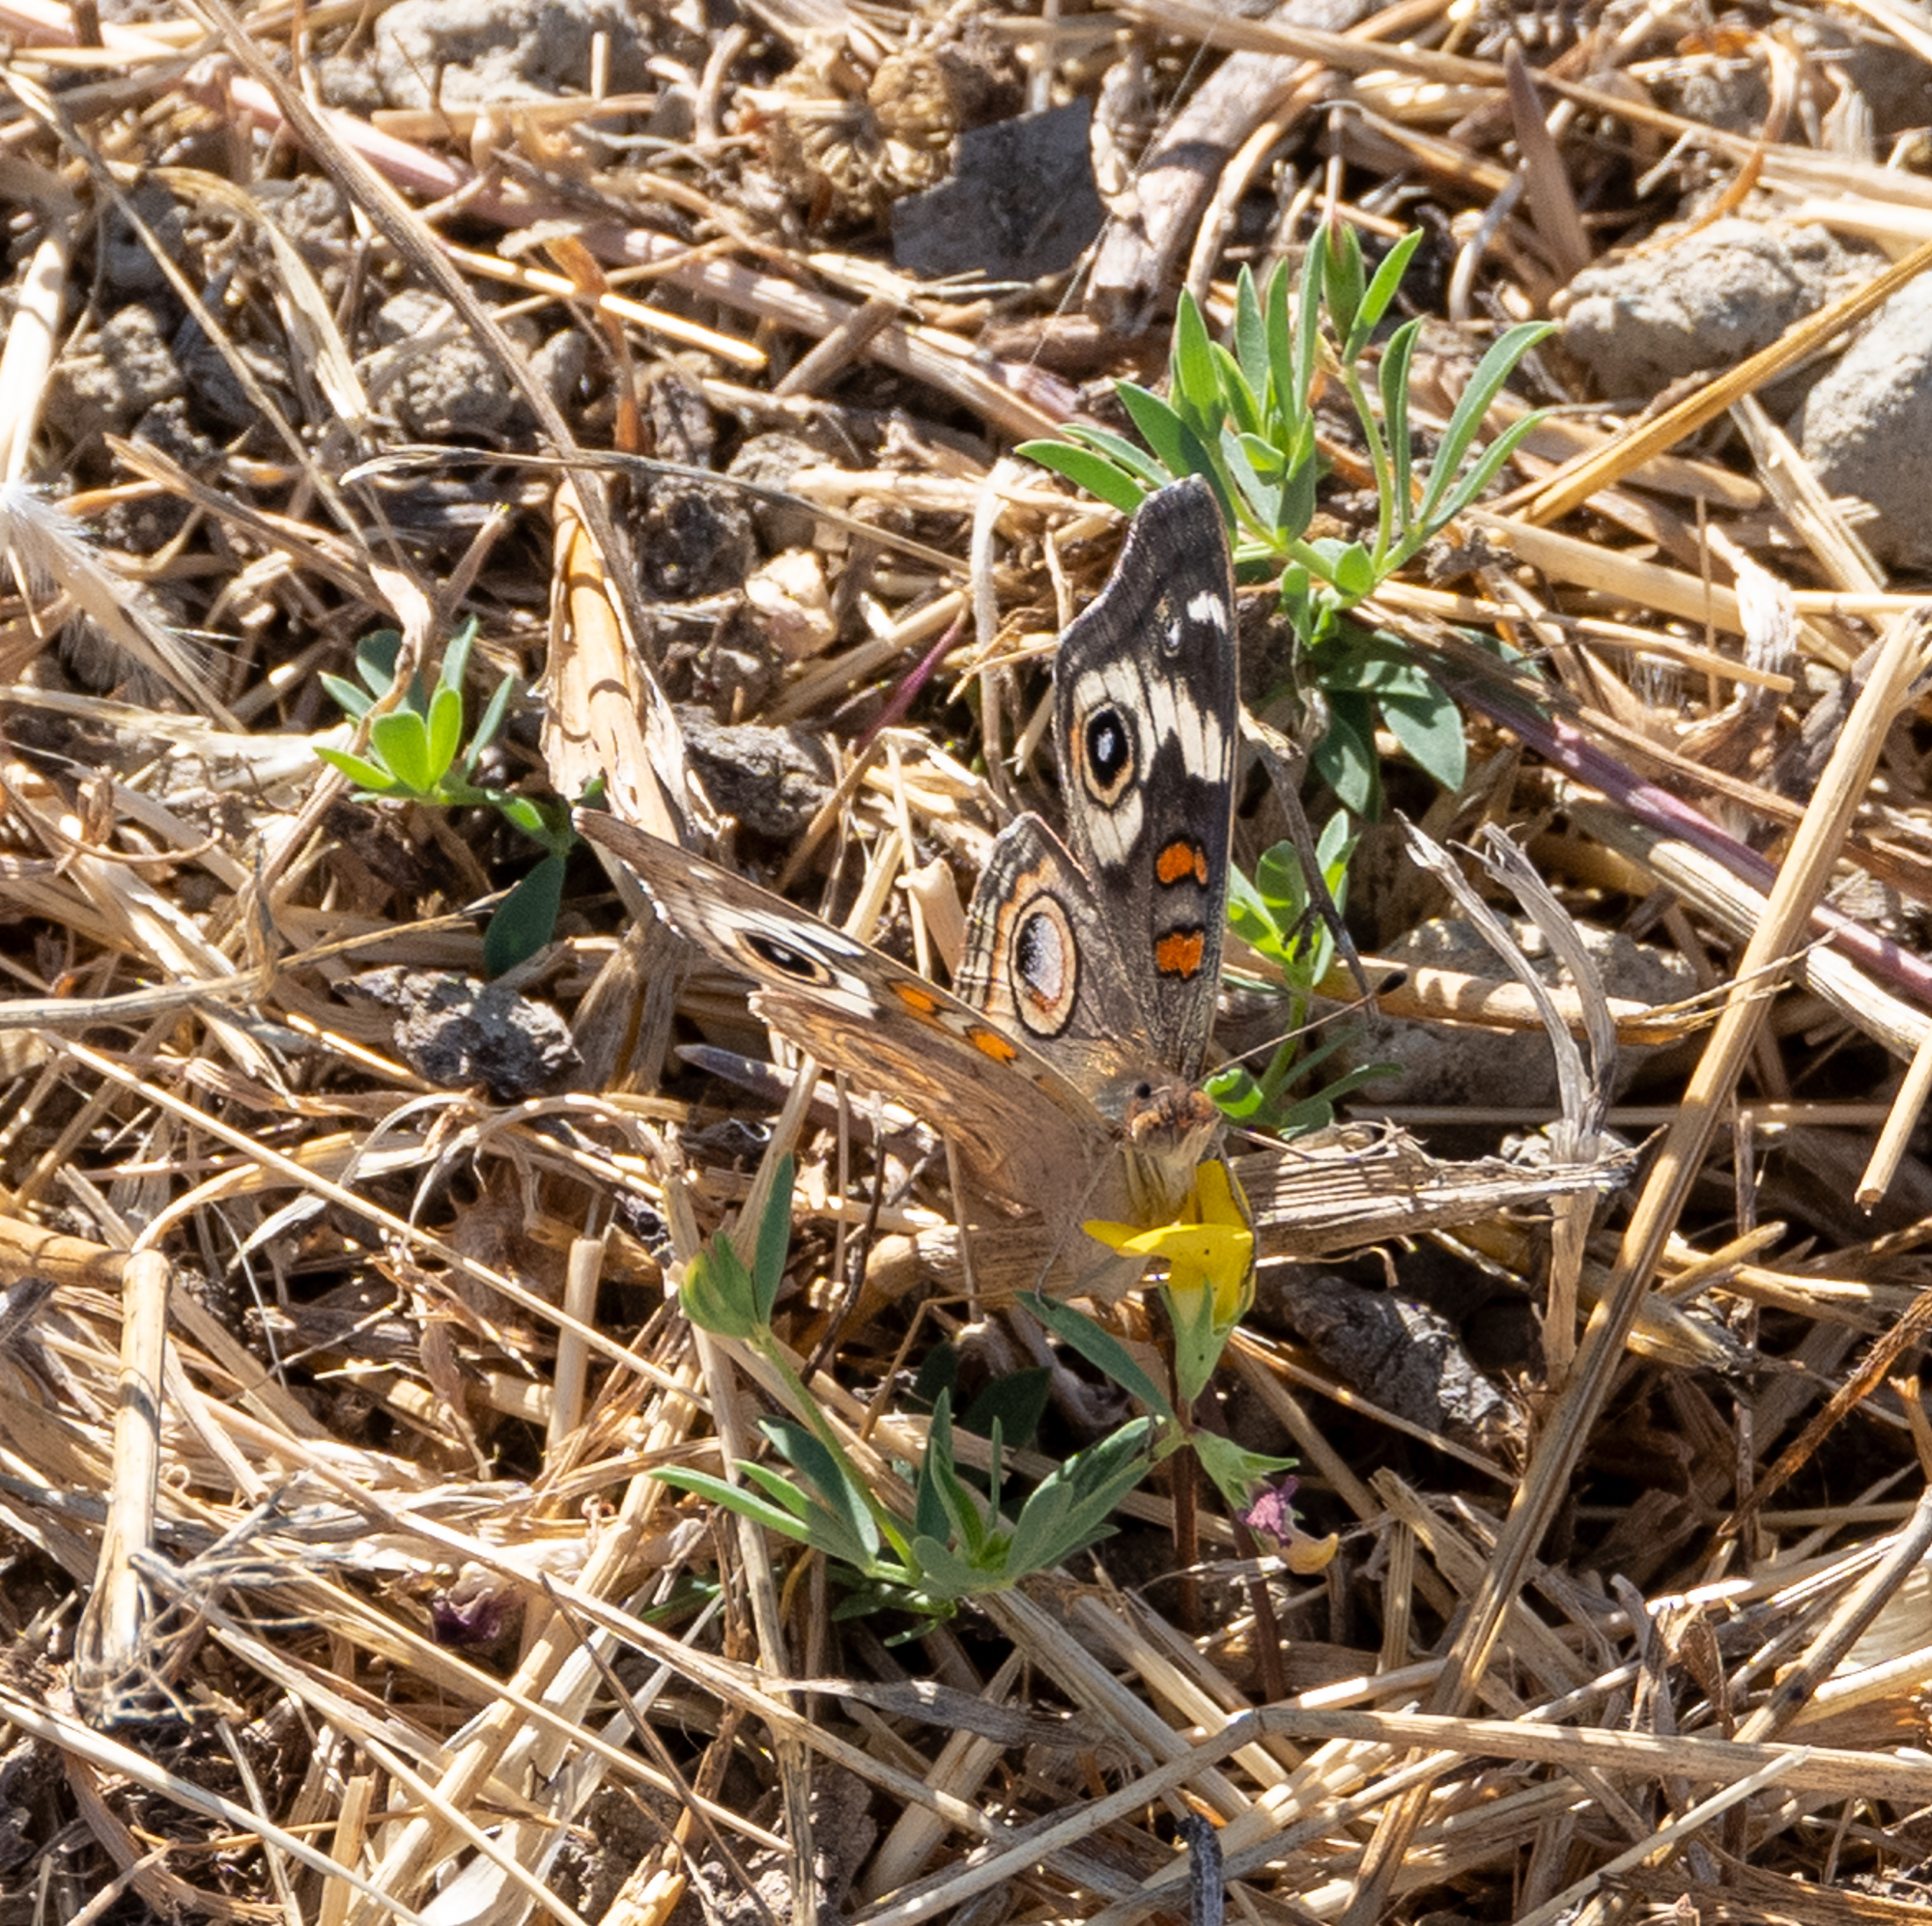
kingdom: Animalia
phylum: Arthropoda
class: Insecta
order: Lepidoptera
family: Nymphalidae
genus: Junonia
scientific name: Junonia grisea
